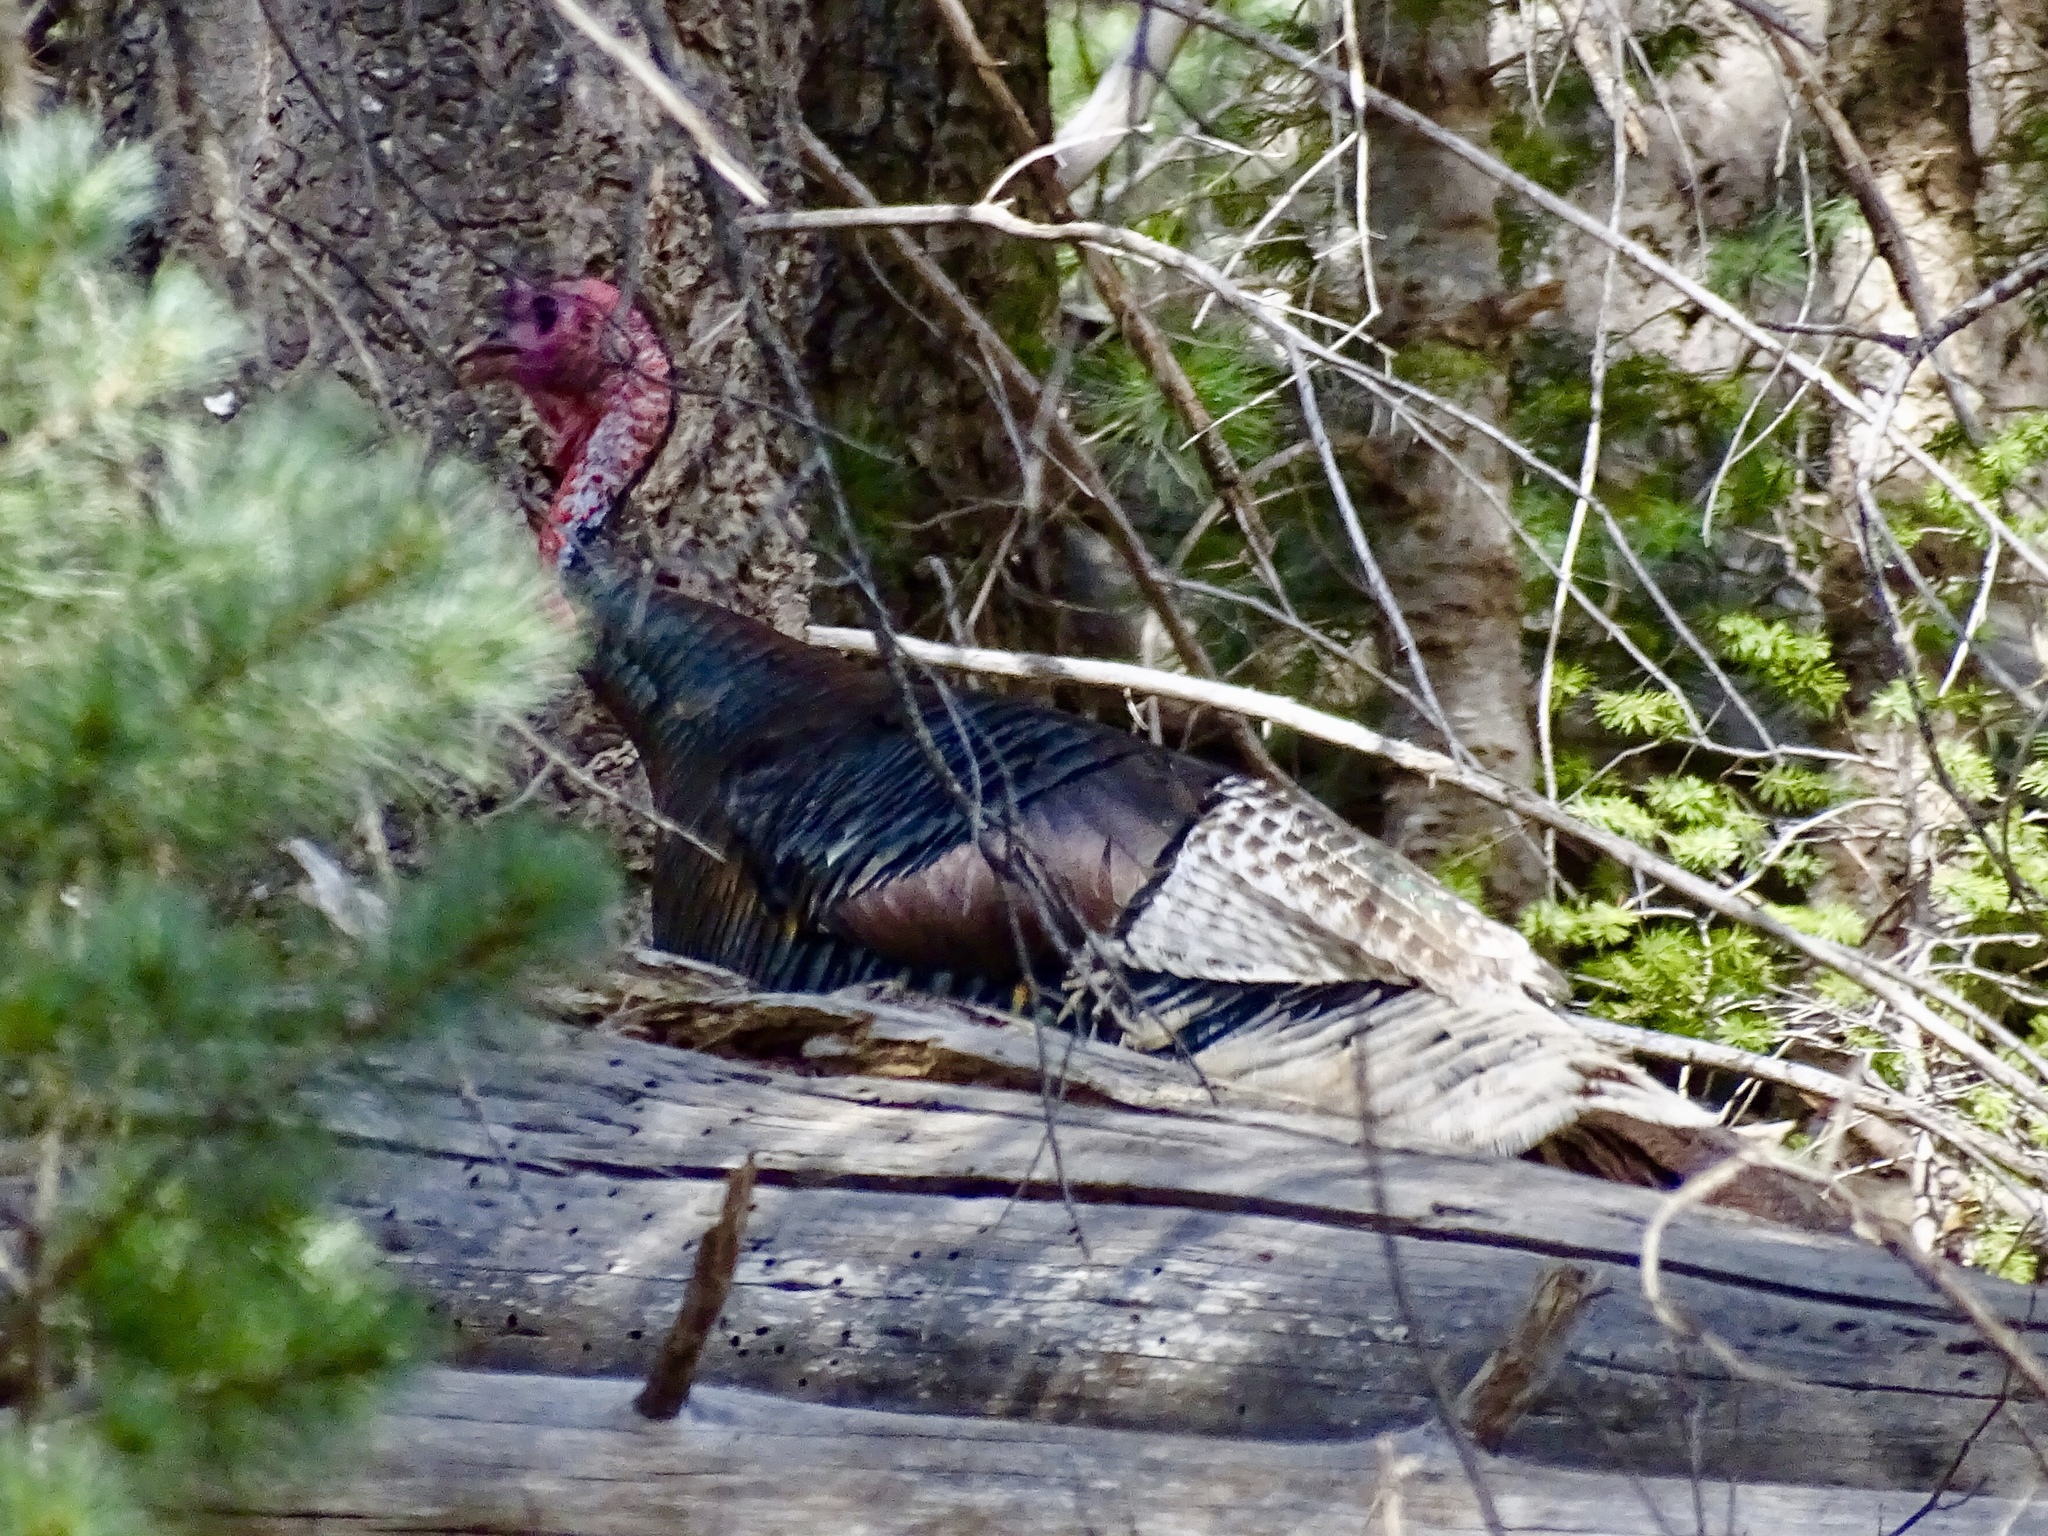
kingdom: Animalia
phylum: Chordata
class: Aves
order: Galliformes
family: Phasianidae
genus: Meleagris
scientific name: Meleagris gallopavo
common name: Wild turkey
